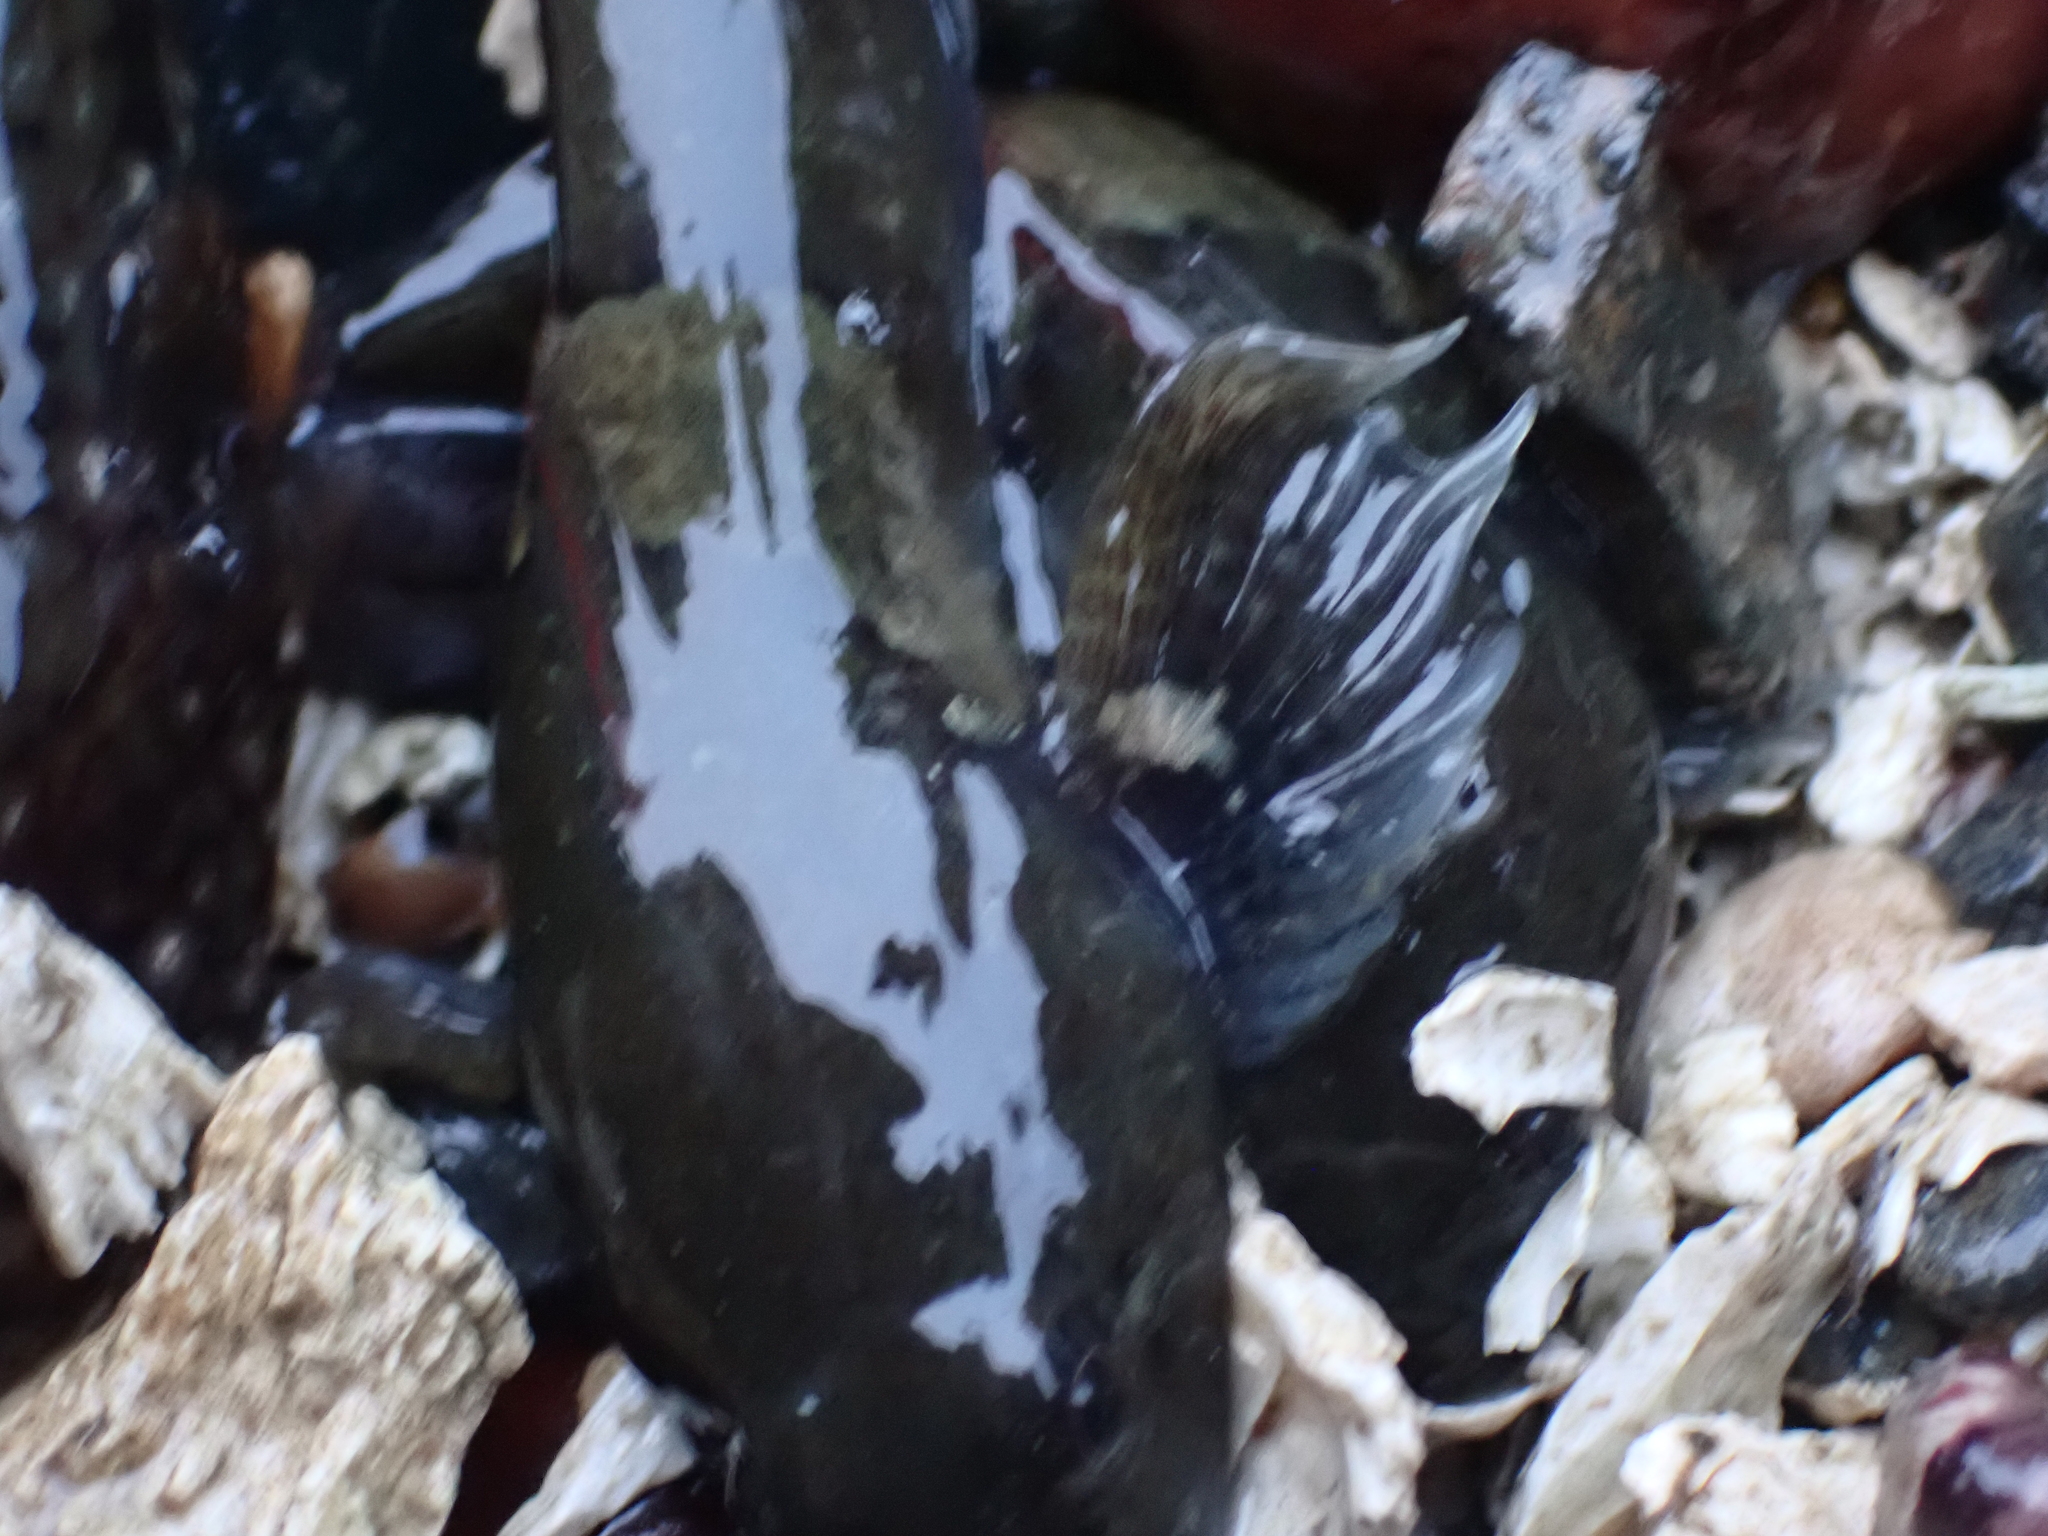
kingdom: Animalia
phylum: Chordata
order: Scorpaeniformes
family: Cottidae
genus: Ascelichthys
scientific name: Ascelichthys rhodorus
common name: Rosylip sculpin
